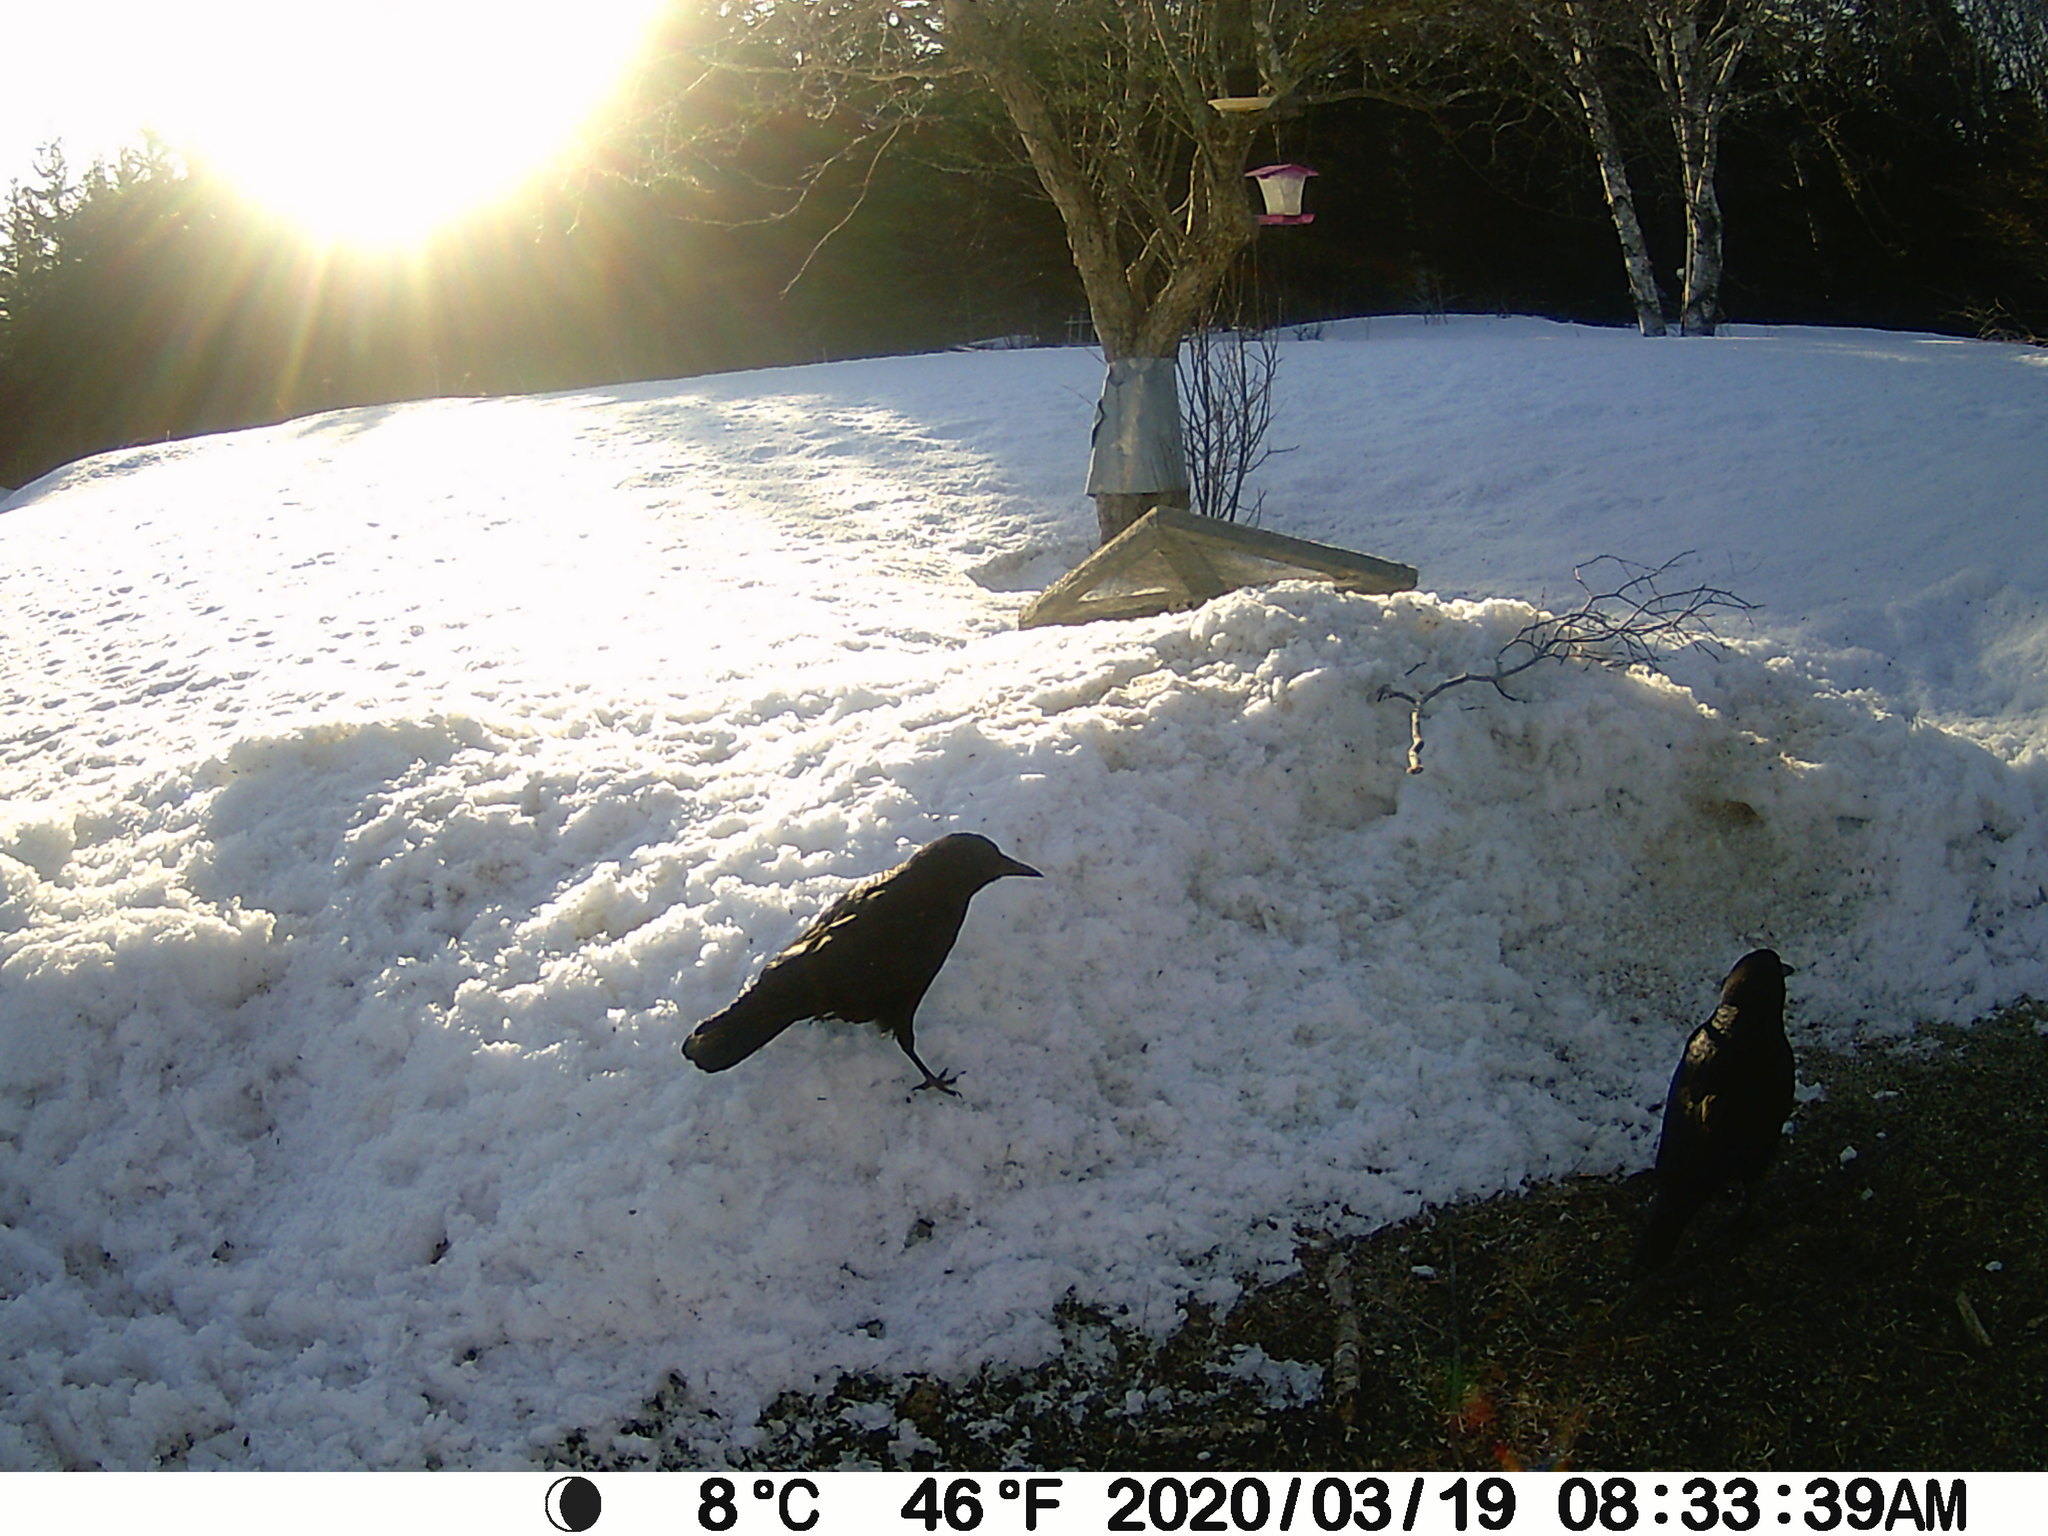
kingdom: Animalia
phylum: Chordata
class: Aves
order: Passeriformes
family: Corvidae
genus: Corvus
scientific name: Corvus brachyrhynchos
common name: American crow
